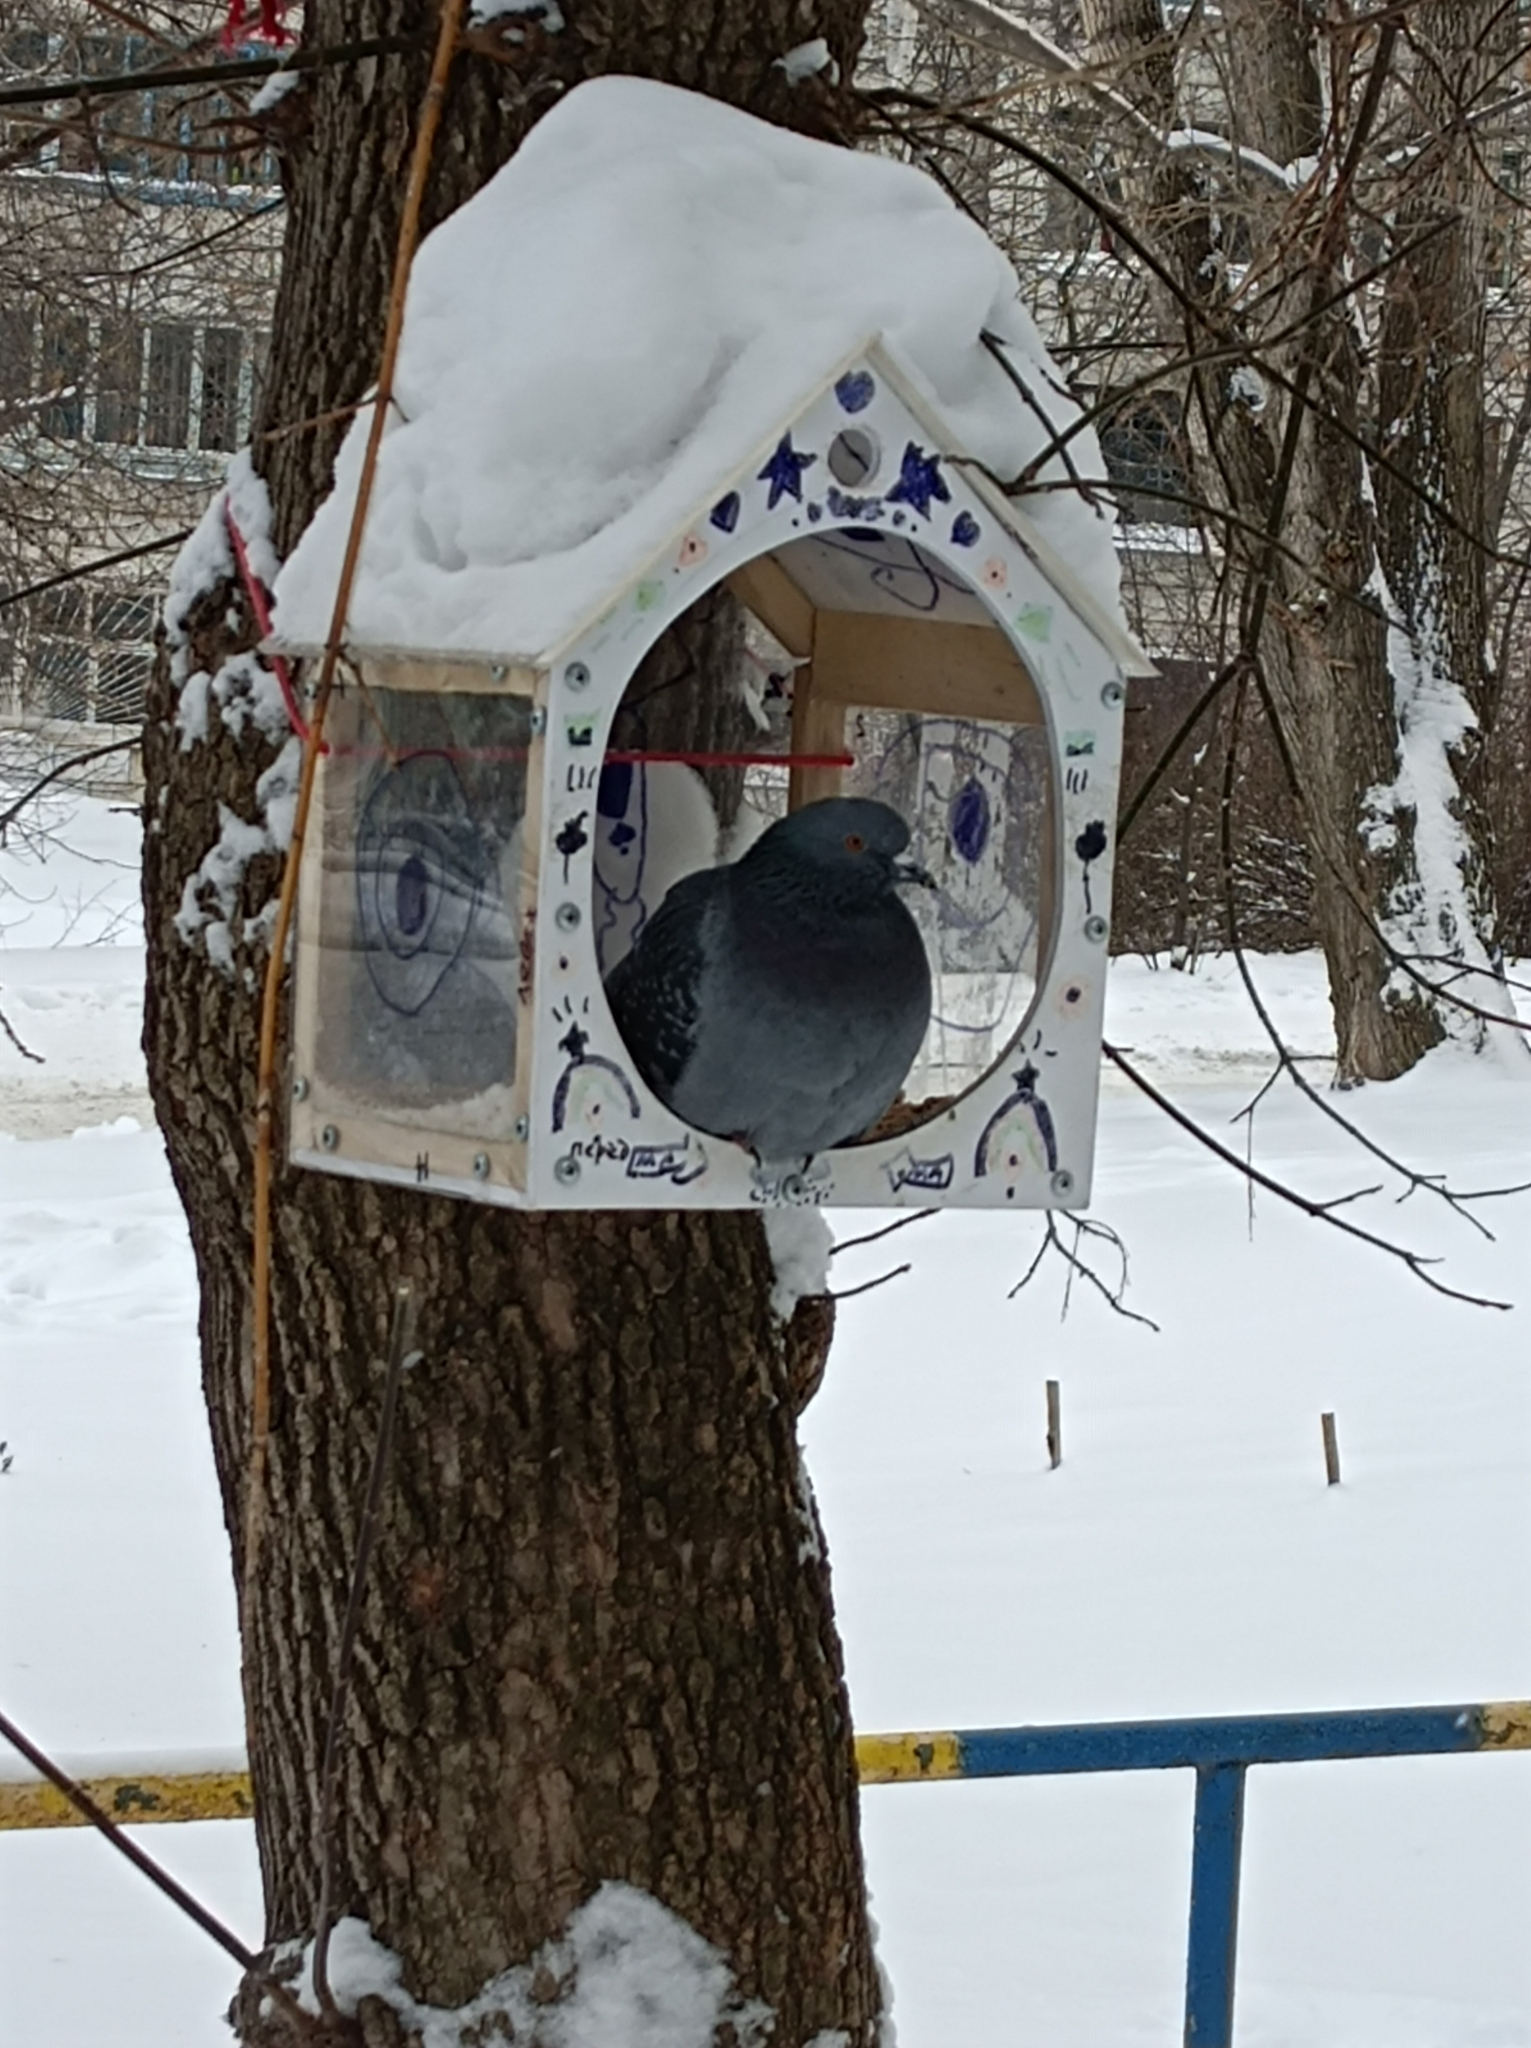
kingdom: Animalia
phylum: Chordata
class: Aves
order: Columbiformes
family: Columbidae
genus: Columba
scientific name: Columba livia
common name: Rock pigeon
